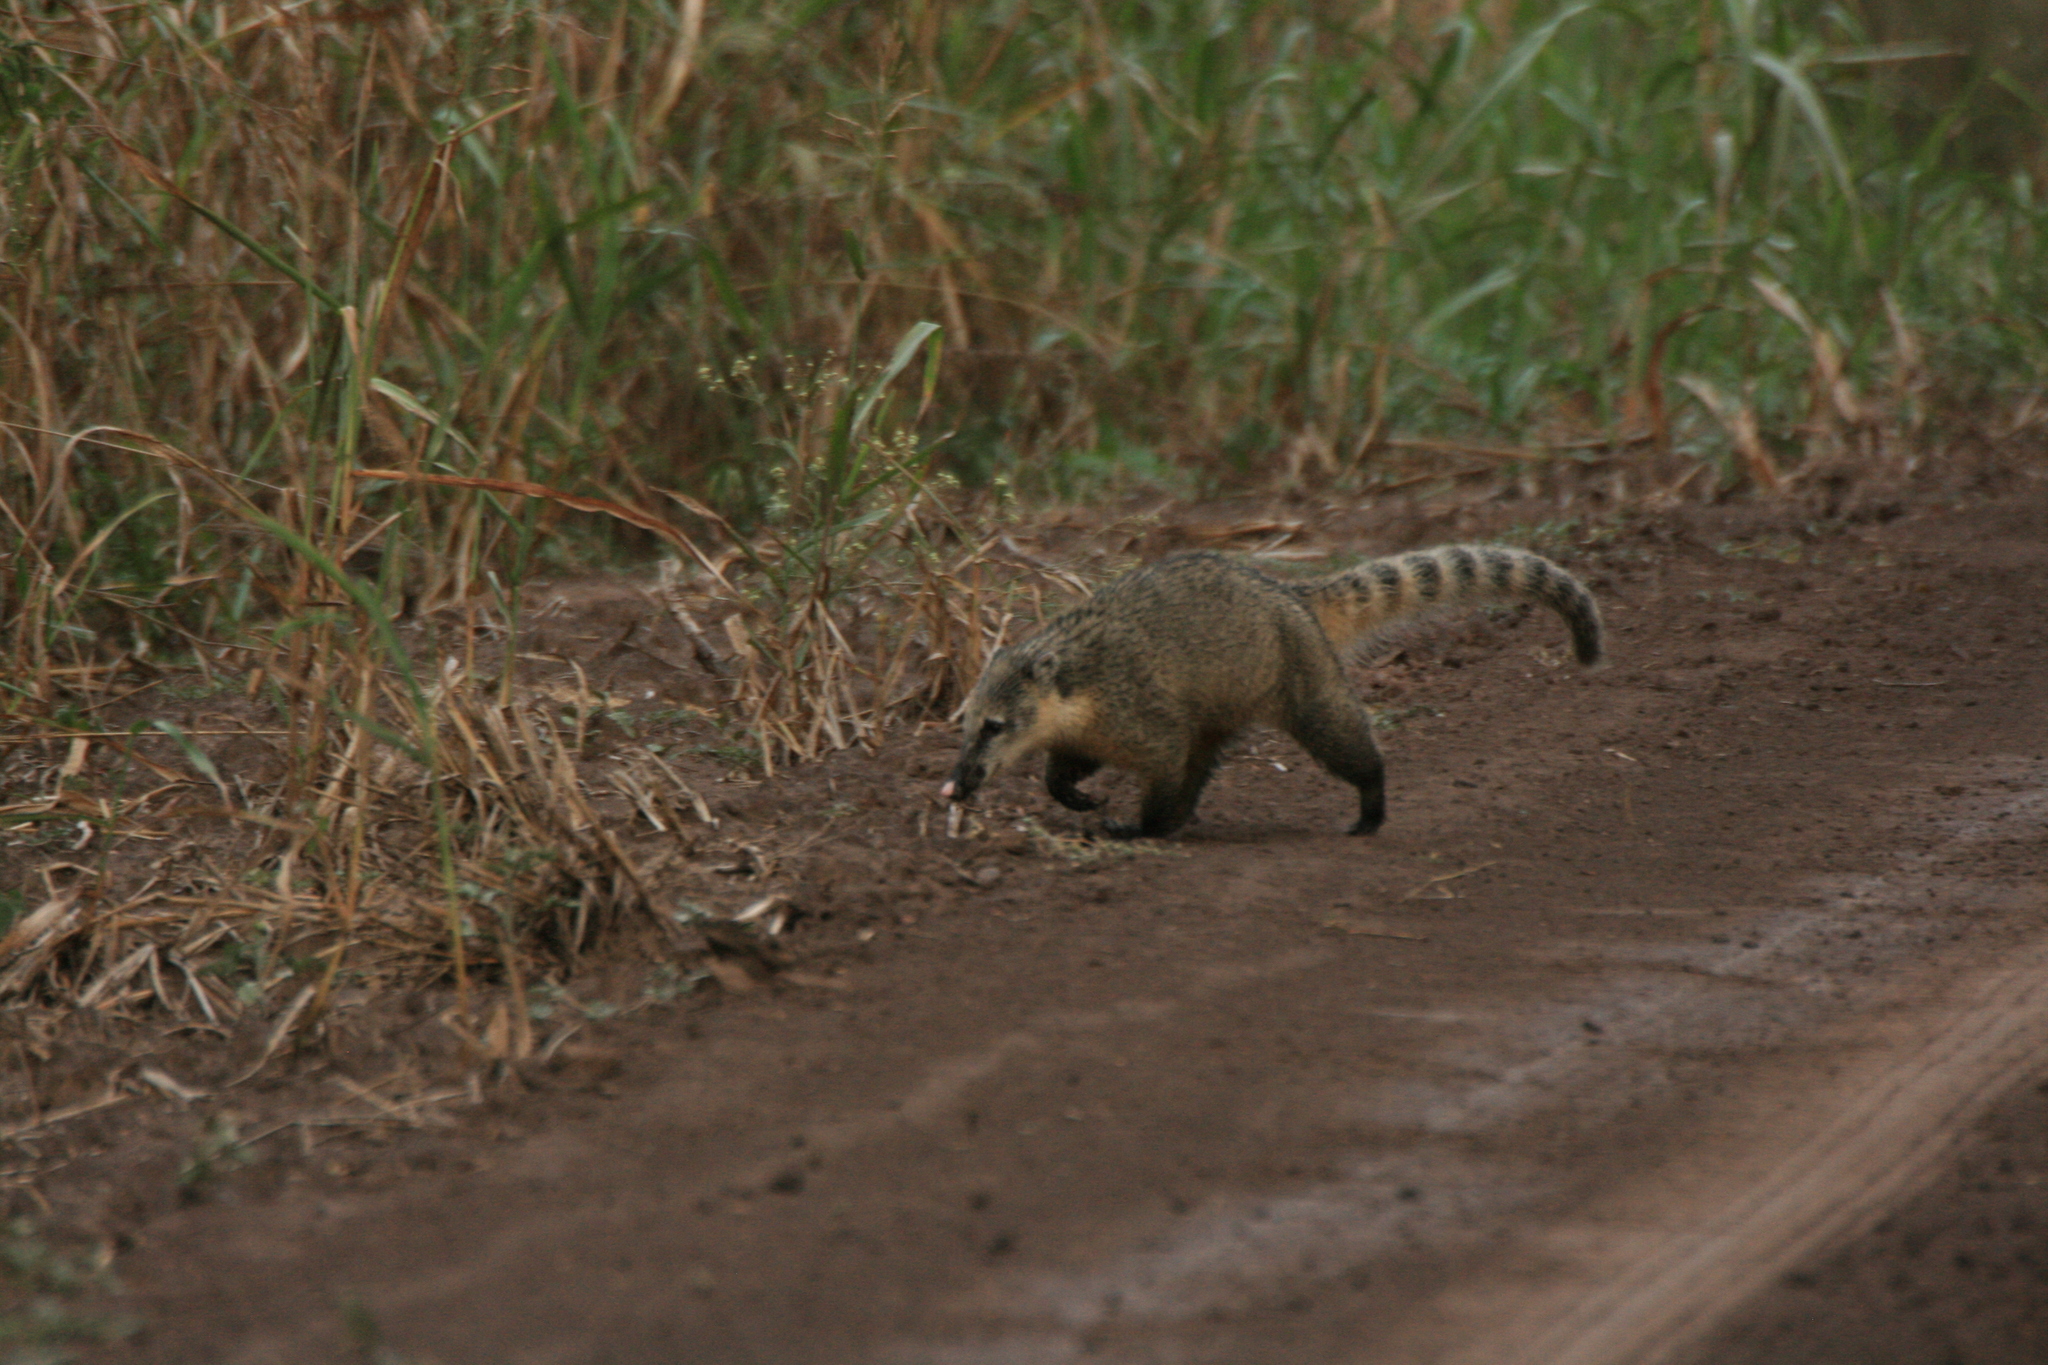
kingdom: Animalia
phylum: Chordata
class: Mammalia
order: Carnivora
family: Procyonidae
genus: Nasua
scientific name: Nasua nasua
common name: South american coati
